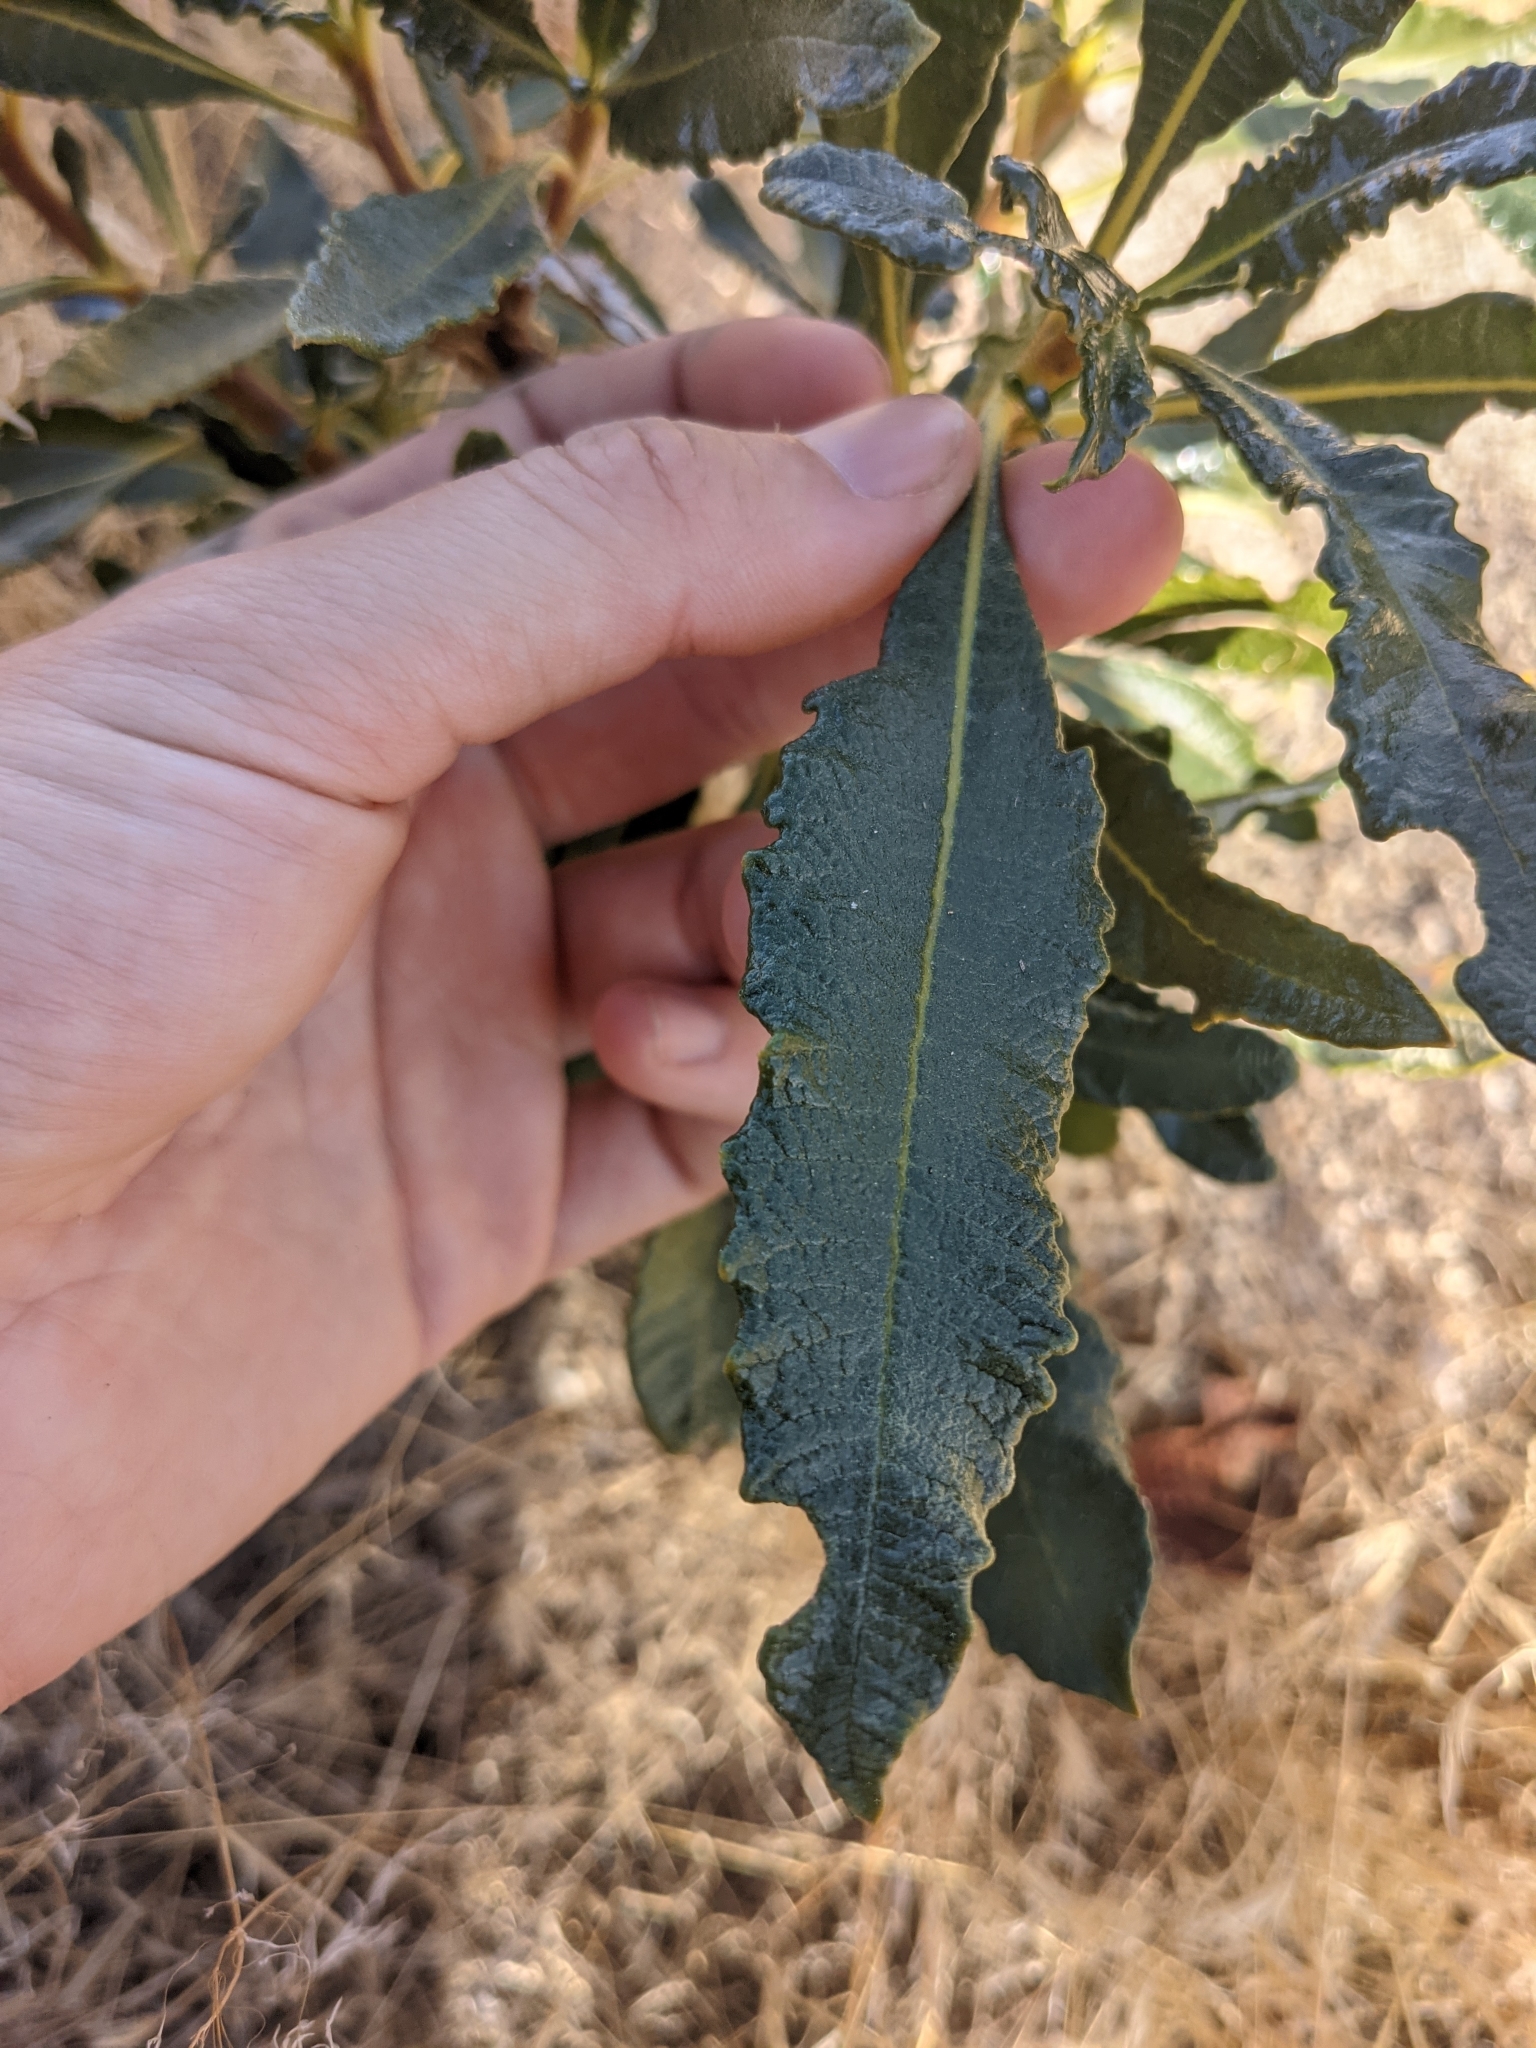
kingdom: Plantae
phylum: Tracheophyta
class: Magnoliopsida
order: Boraginales
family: Namaceae
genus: Eriodictyon
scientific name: Eriodictyon trichocalyx
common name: Hairy yerba-santa
